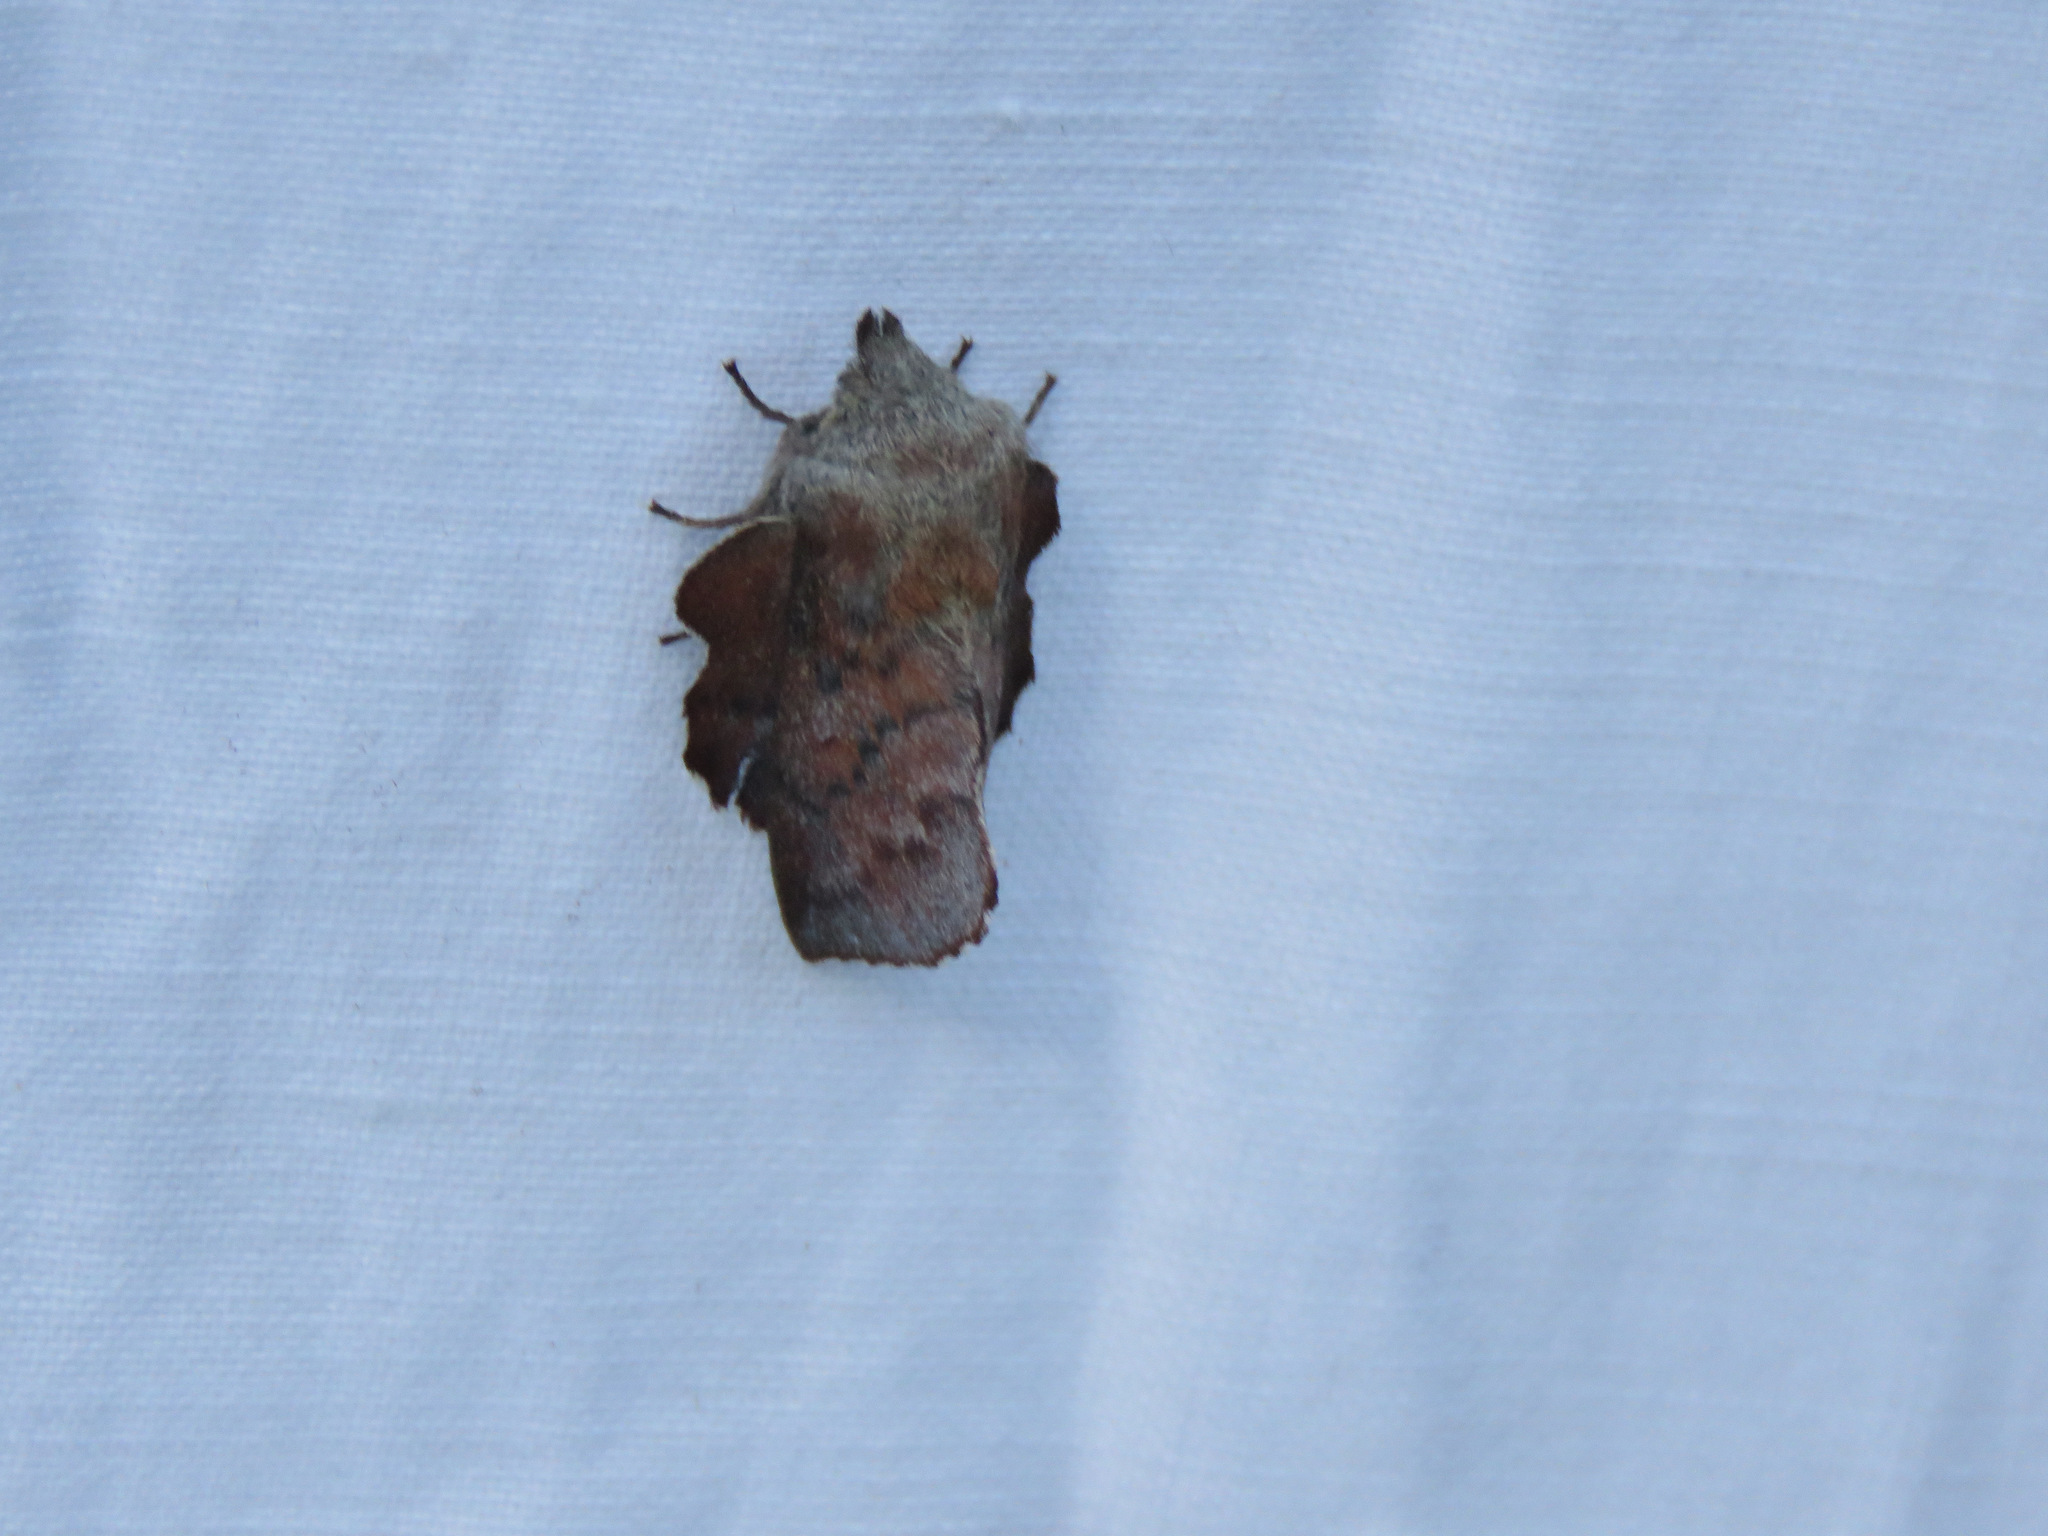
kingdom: Animalia
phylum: Arthropoda
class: Insecta
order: Lepidoptera
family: Lasiocampidae
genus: Phyllodesma
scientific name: Phyllodesma americana
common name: American lappet moth
